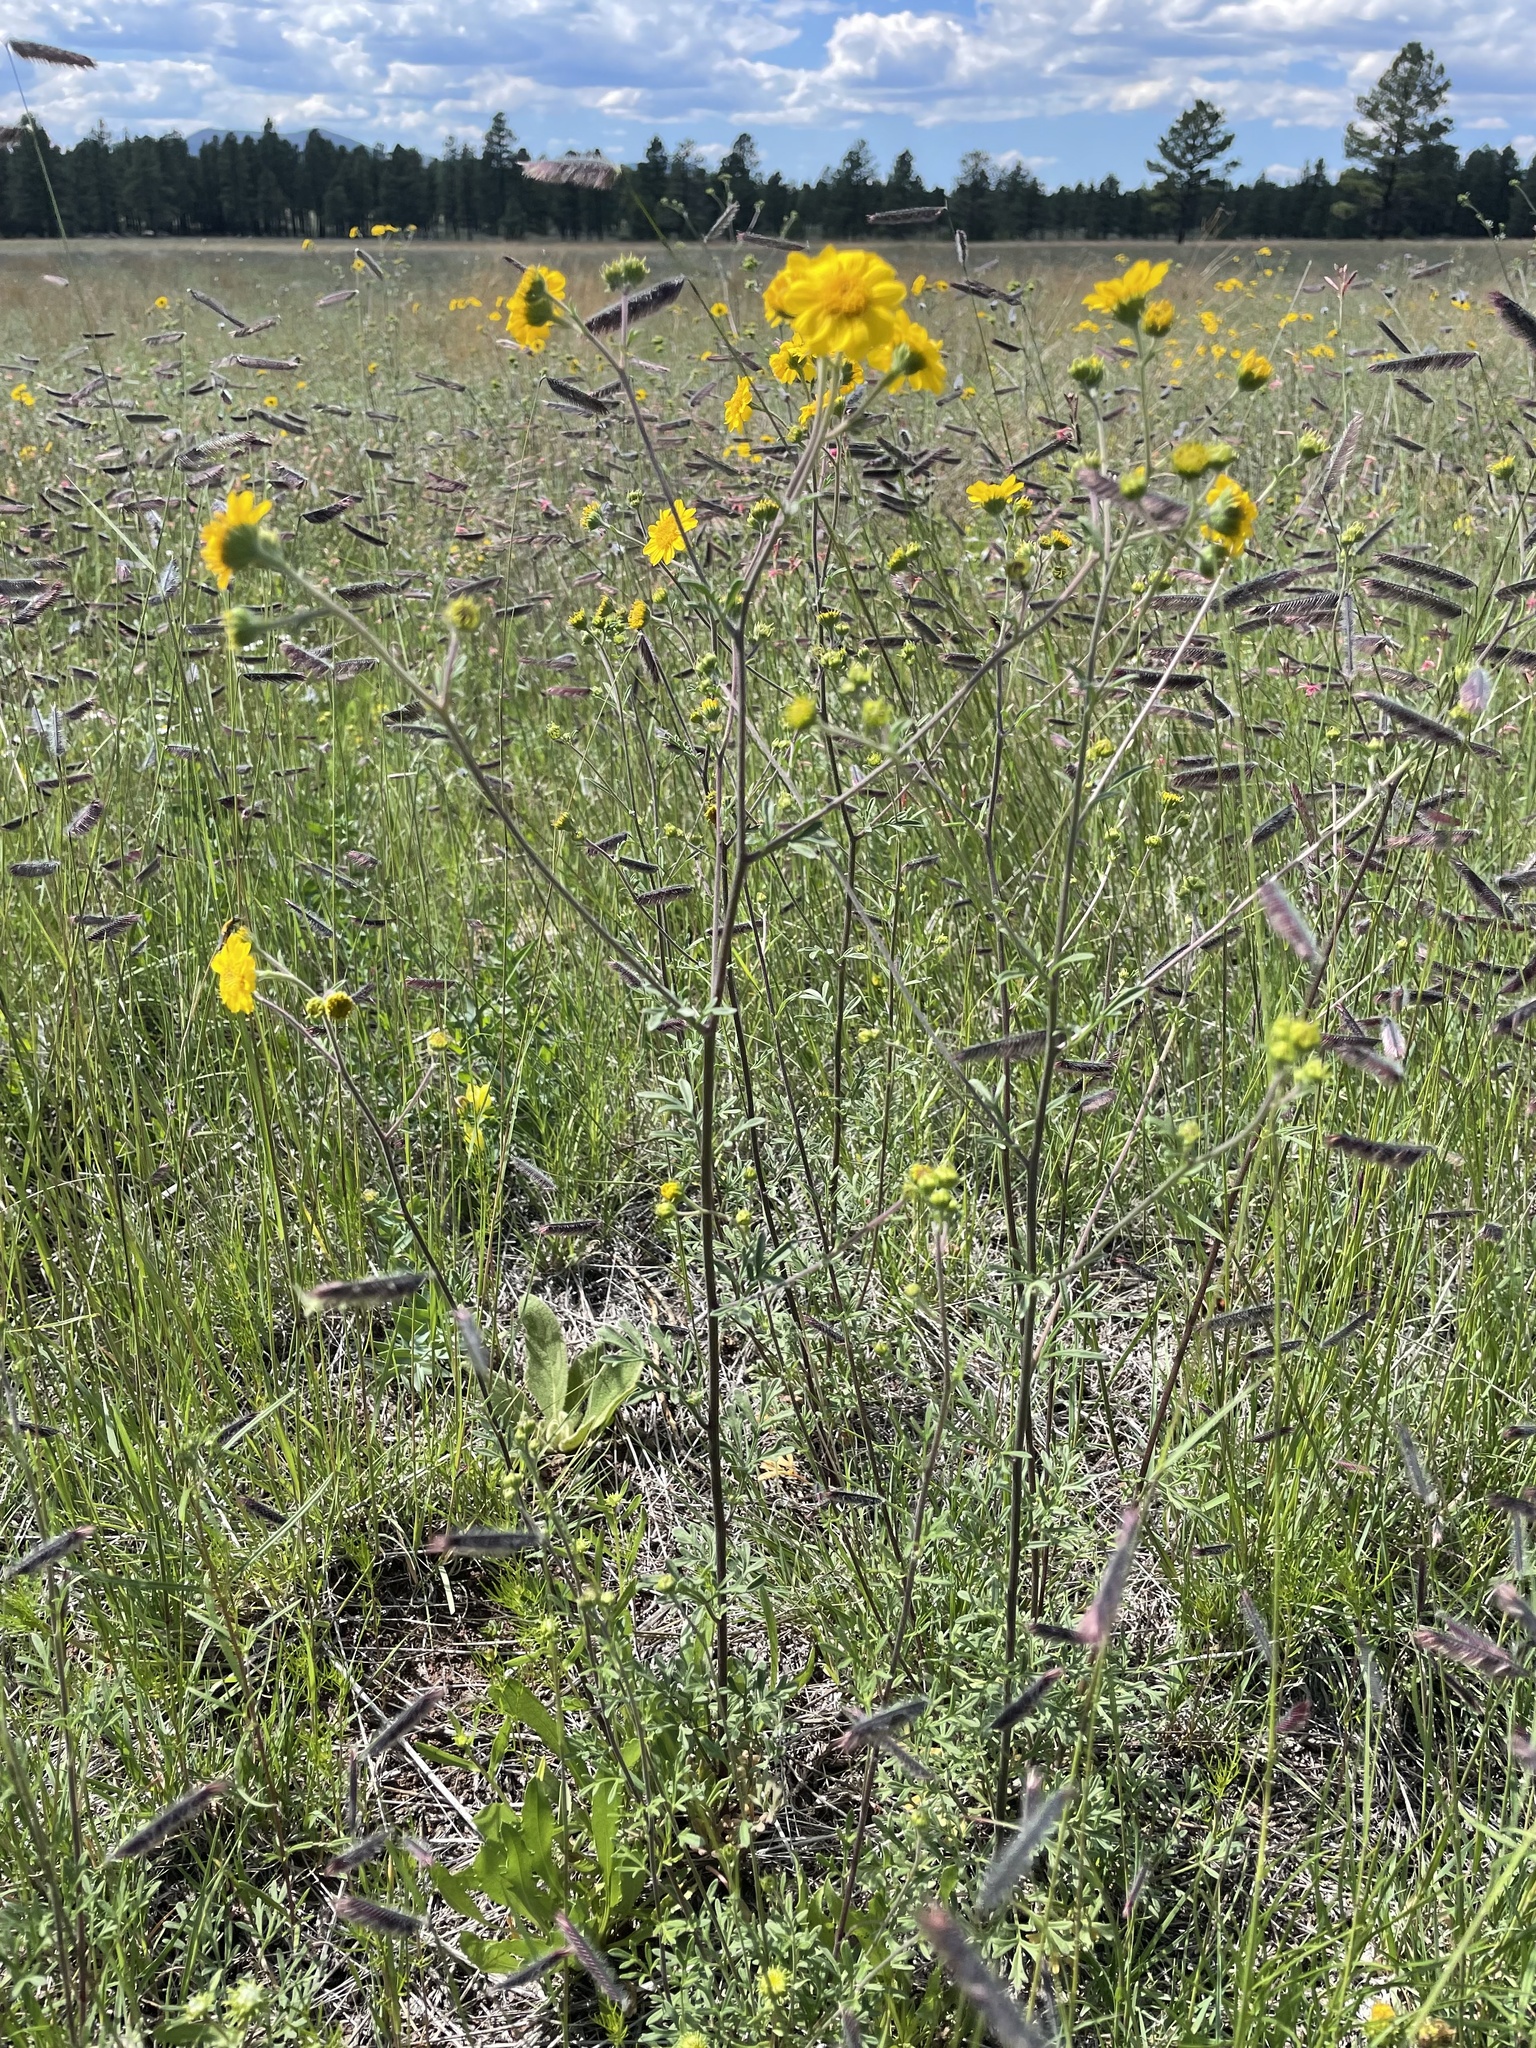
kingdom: Plantae
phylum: Tracheophyta
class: Magnoliopsida
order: Asterales
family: Asteraceae
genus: Hymenothrix
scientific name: Hymenothrix dissecta
